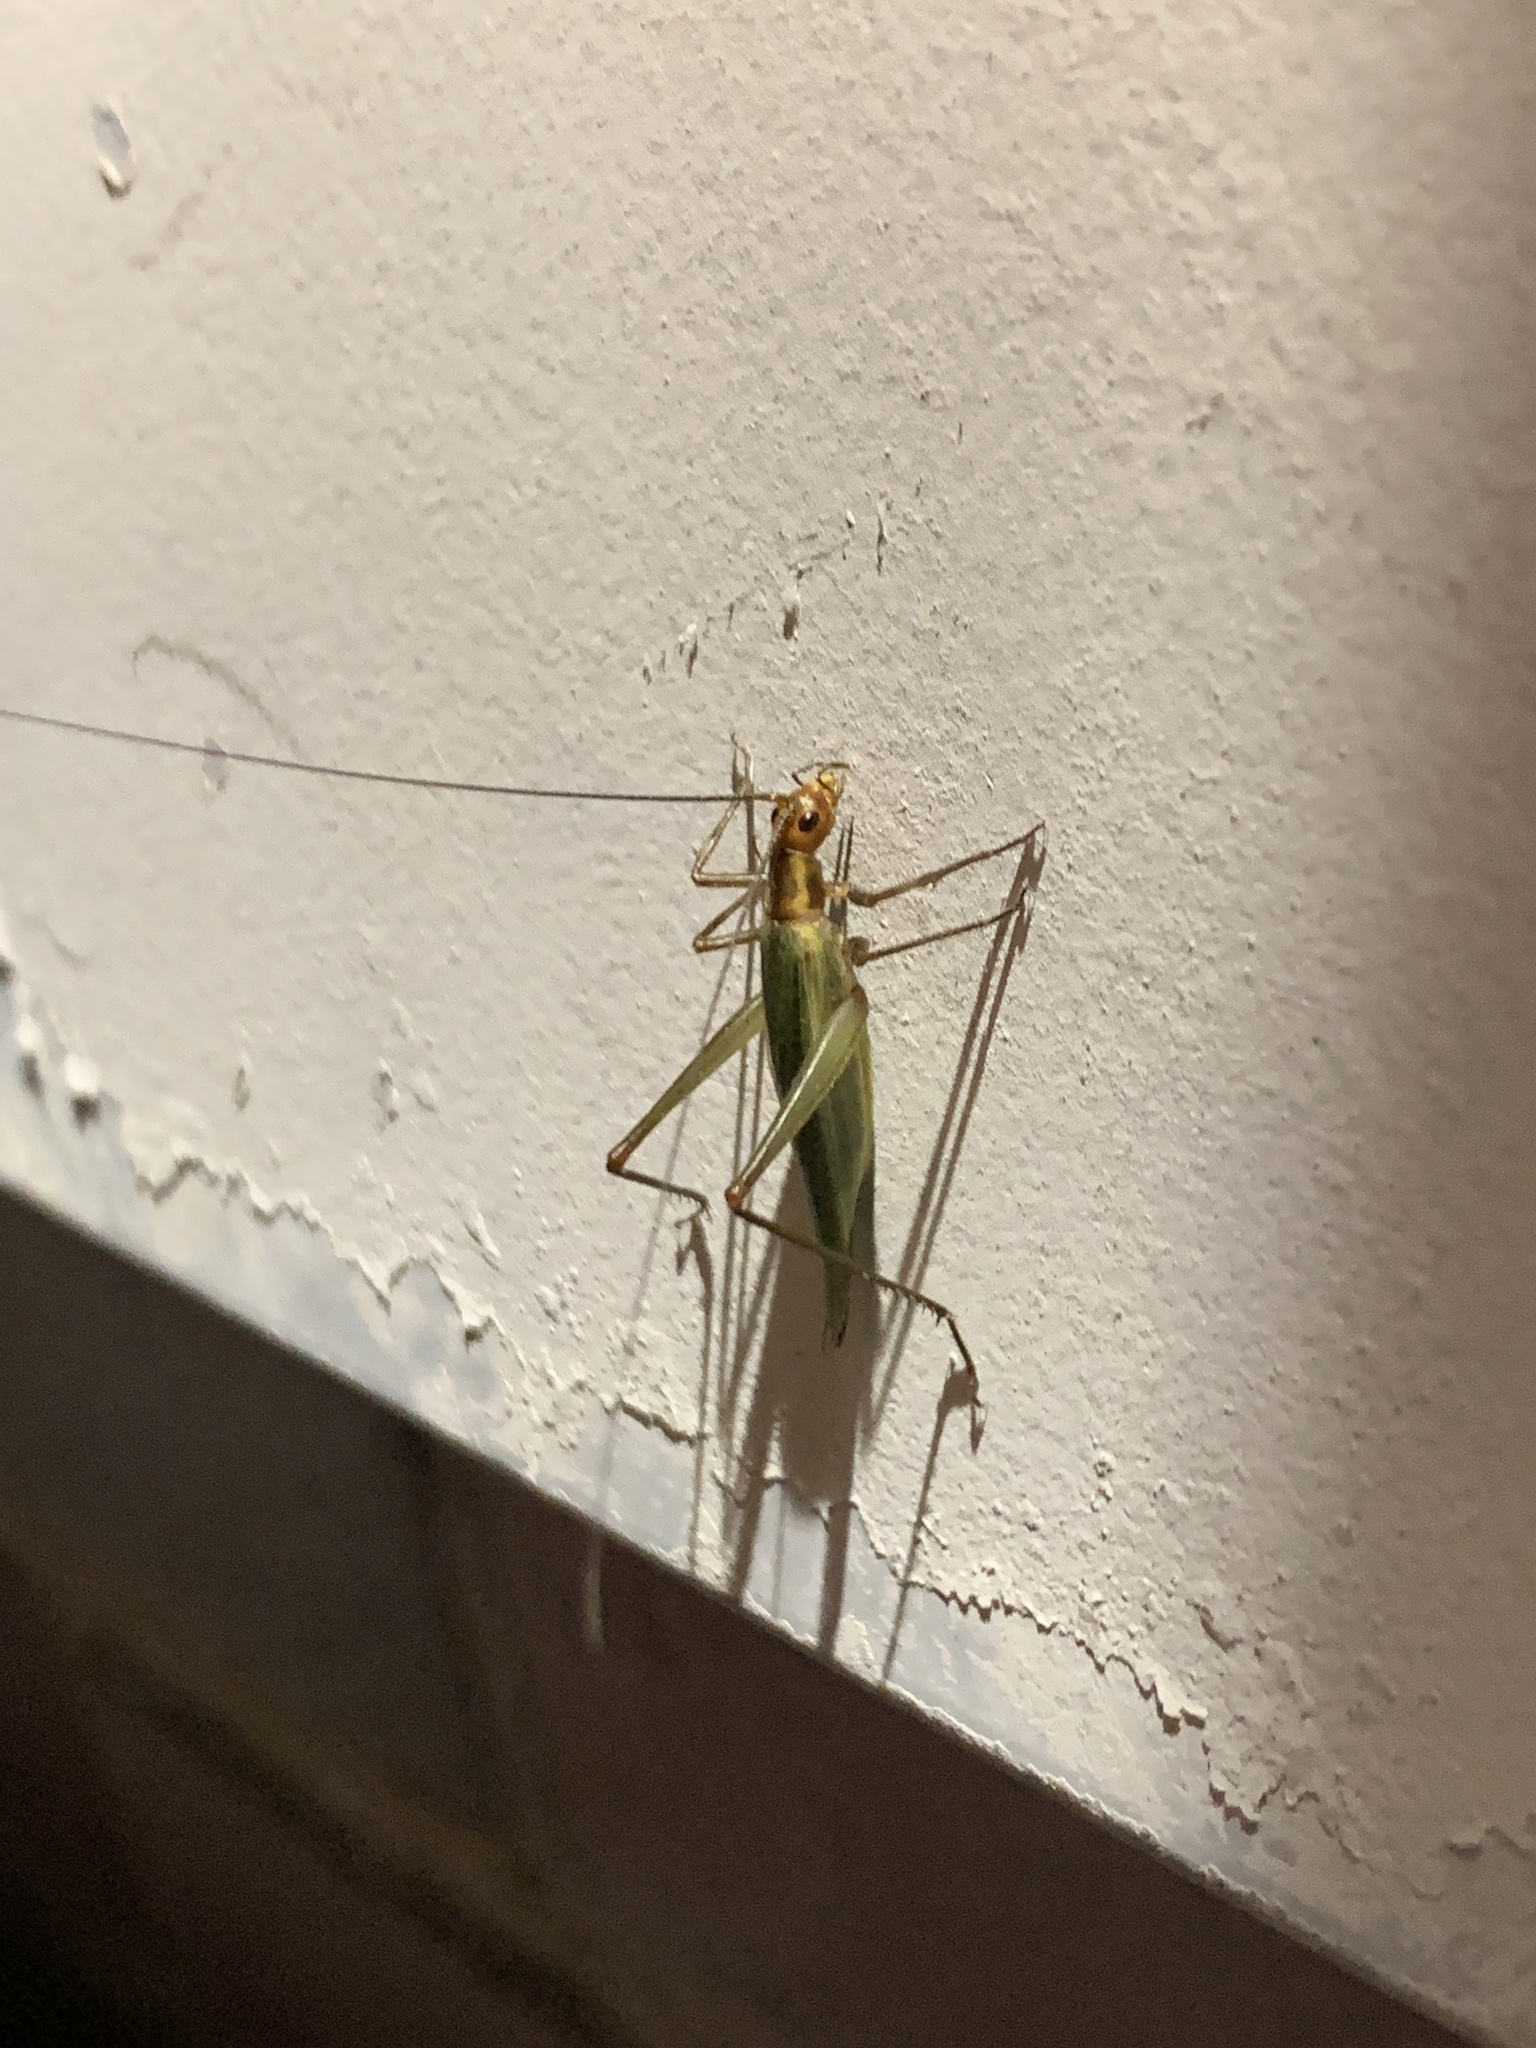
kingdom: Animalia
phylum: Arthropoda
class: Insecta
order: Orthoptera
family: Gryllidae
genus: Oecanthus
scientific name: Oecanthus pini
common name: Pine tree cricket
